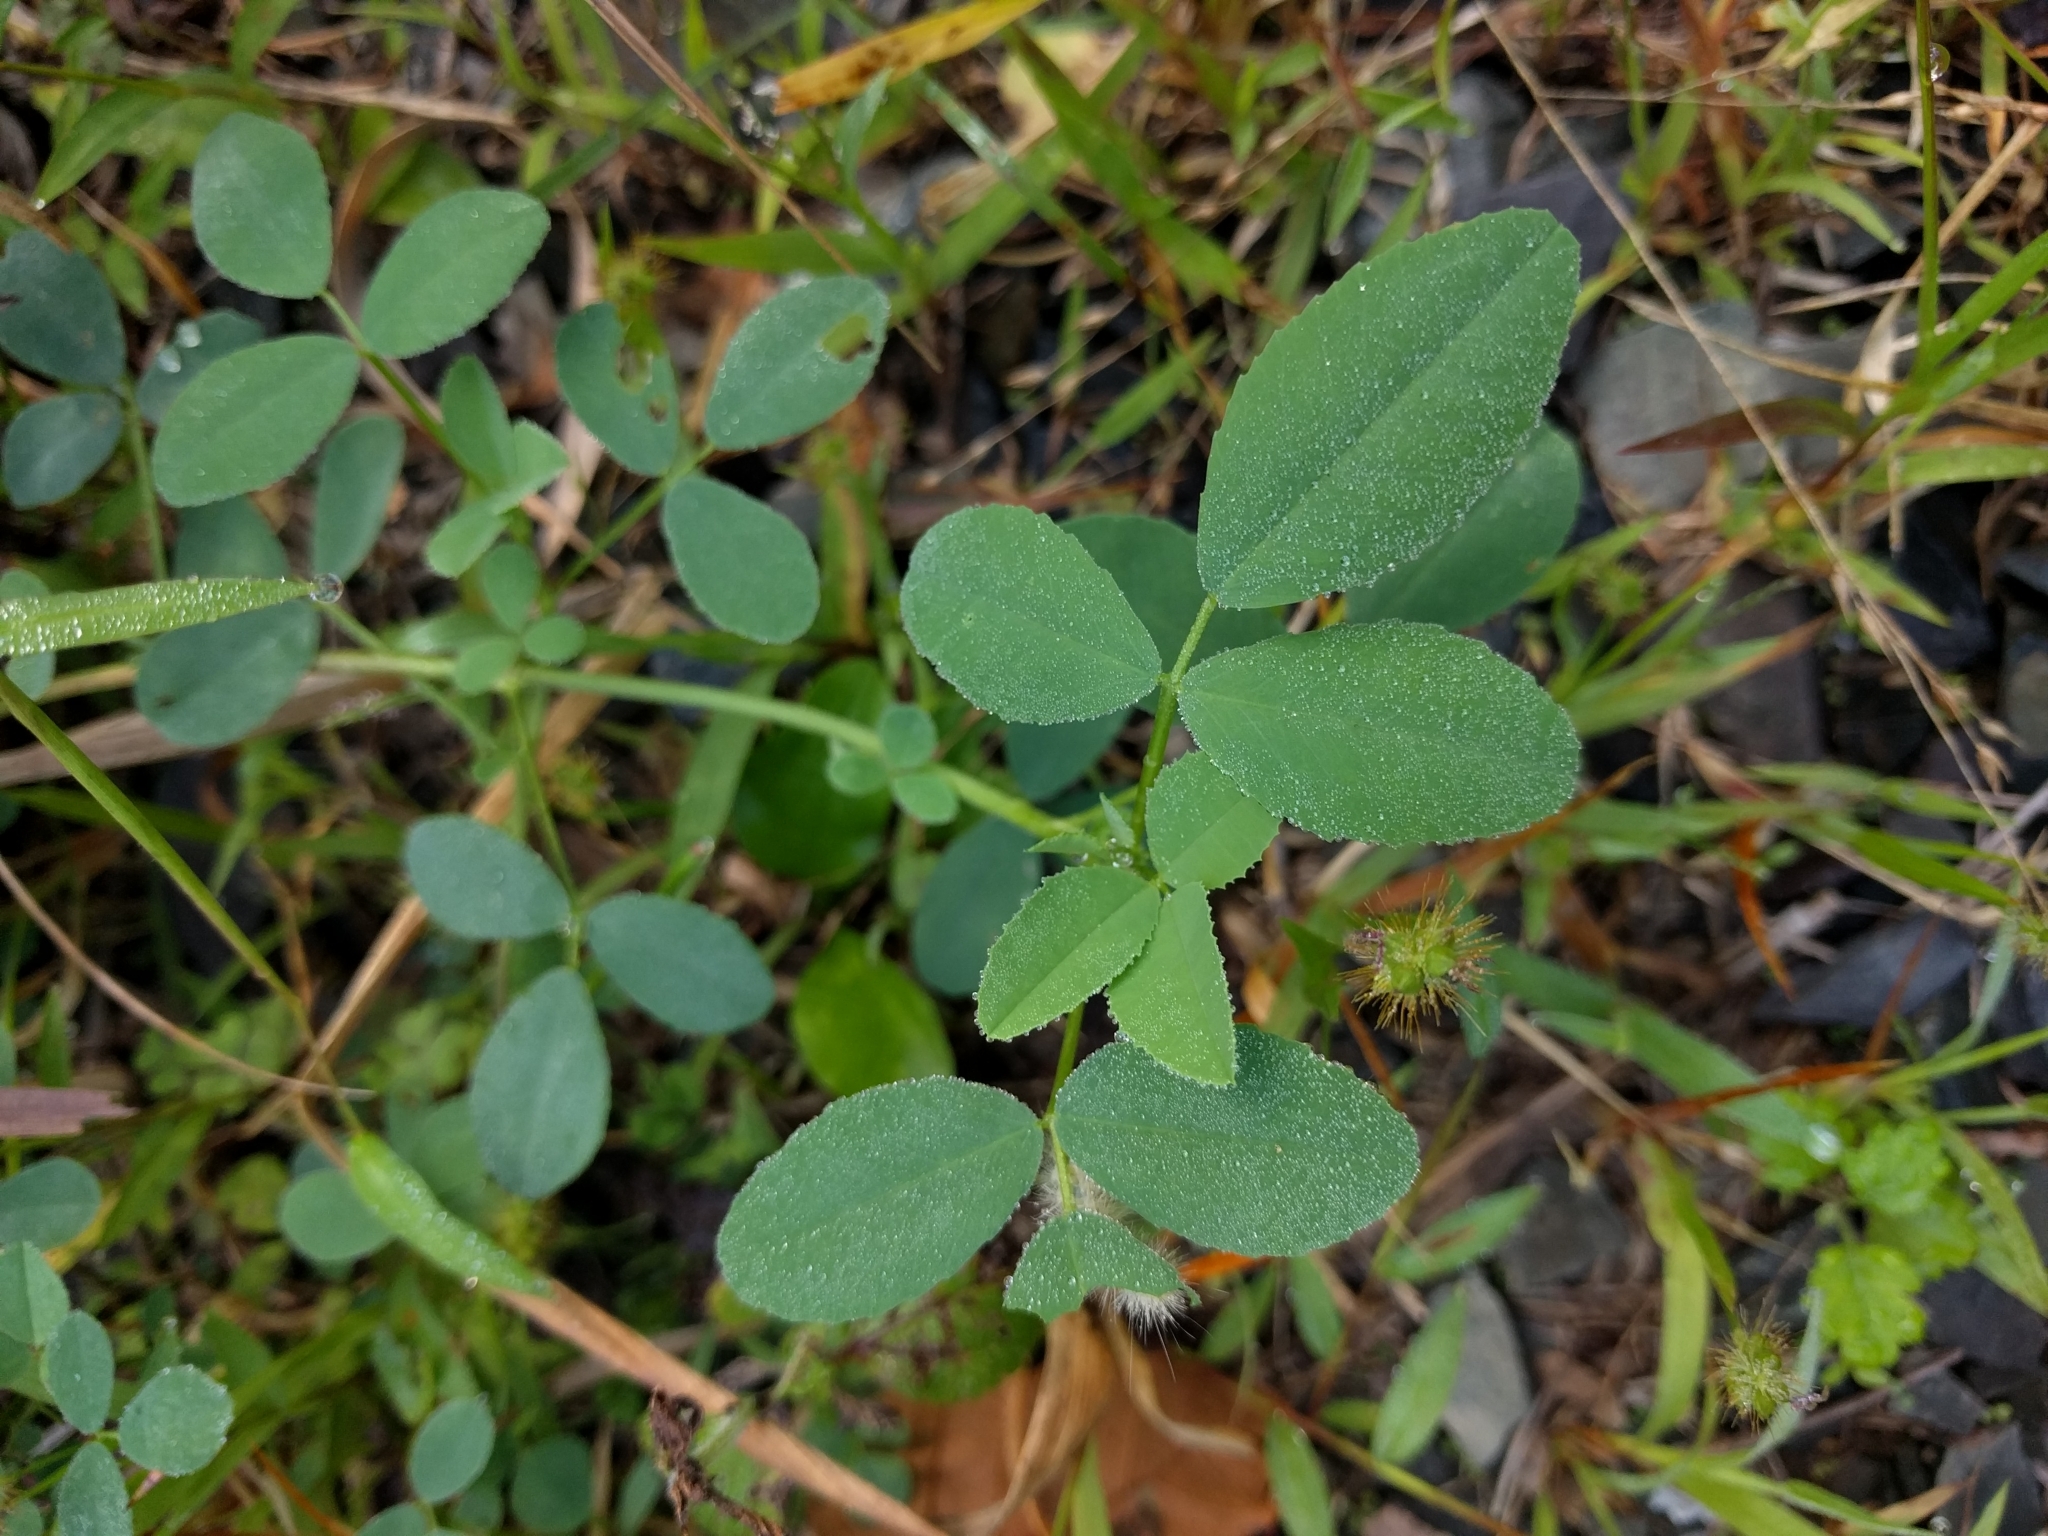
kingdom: Plantae
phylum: Tracheophyta
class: Magnoliopsida
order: Fabales
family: Fabaceae
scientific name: Fabaceae
